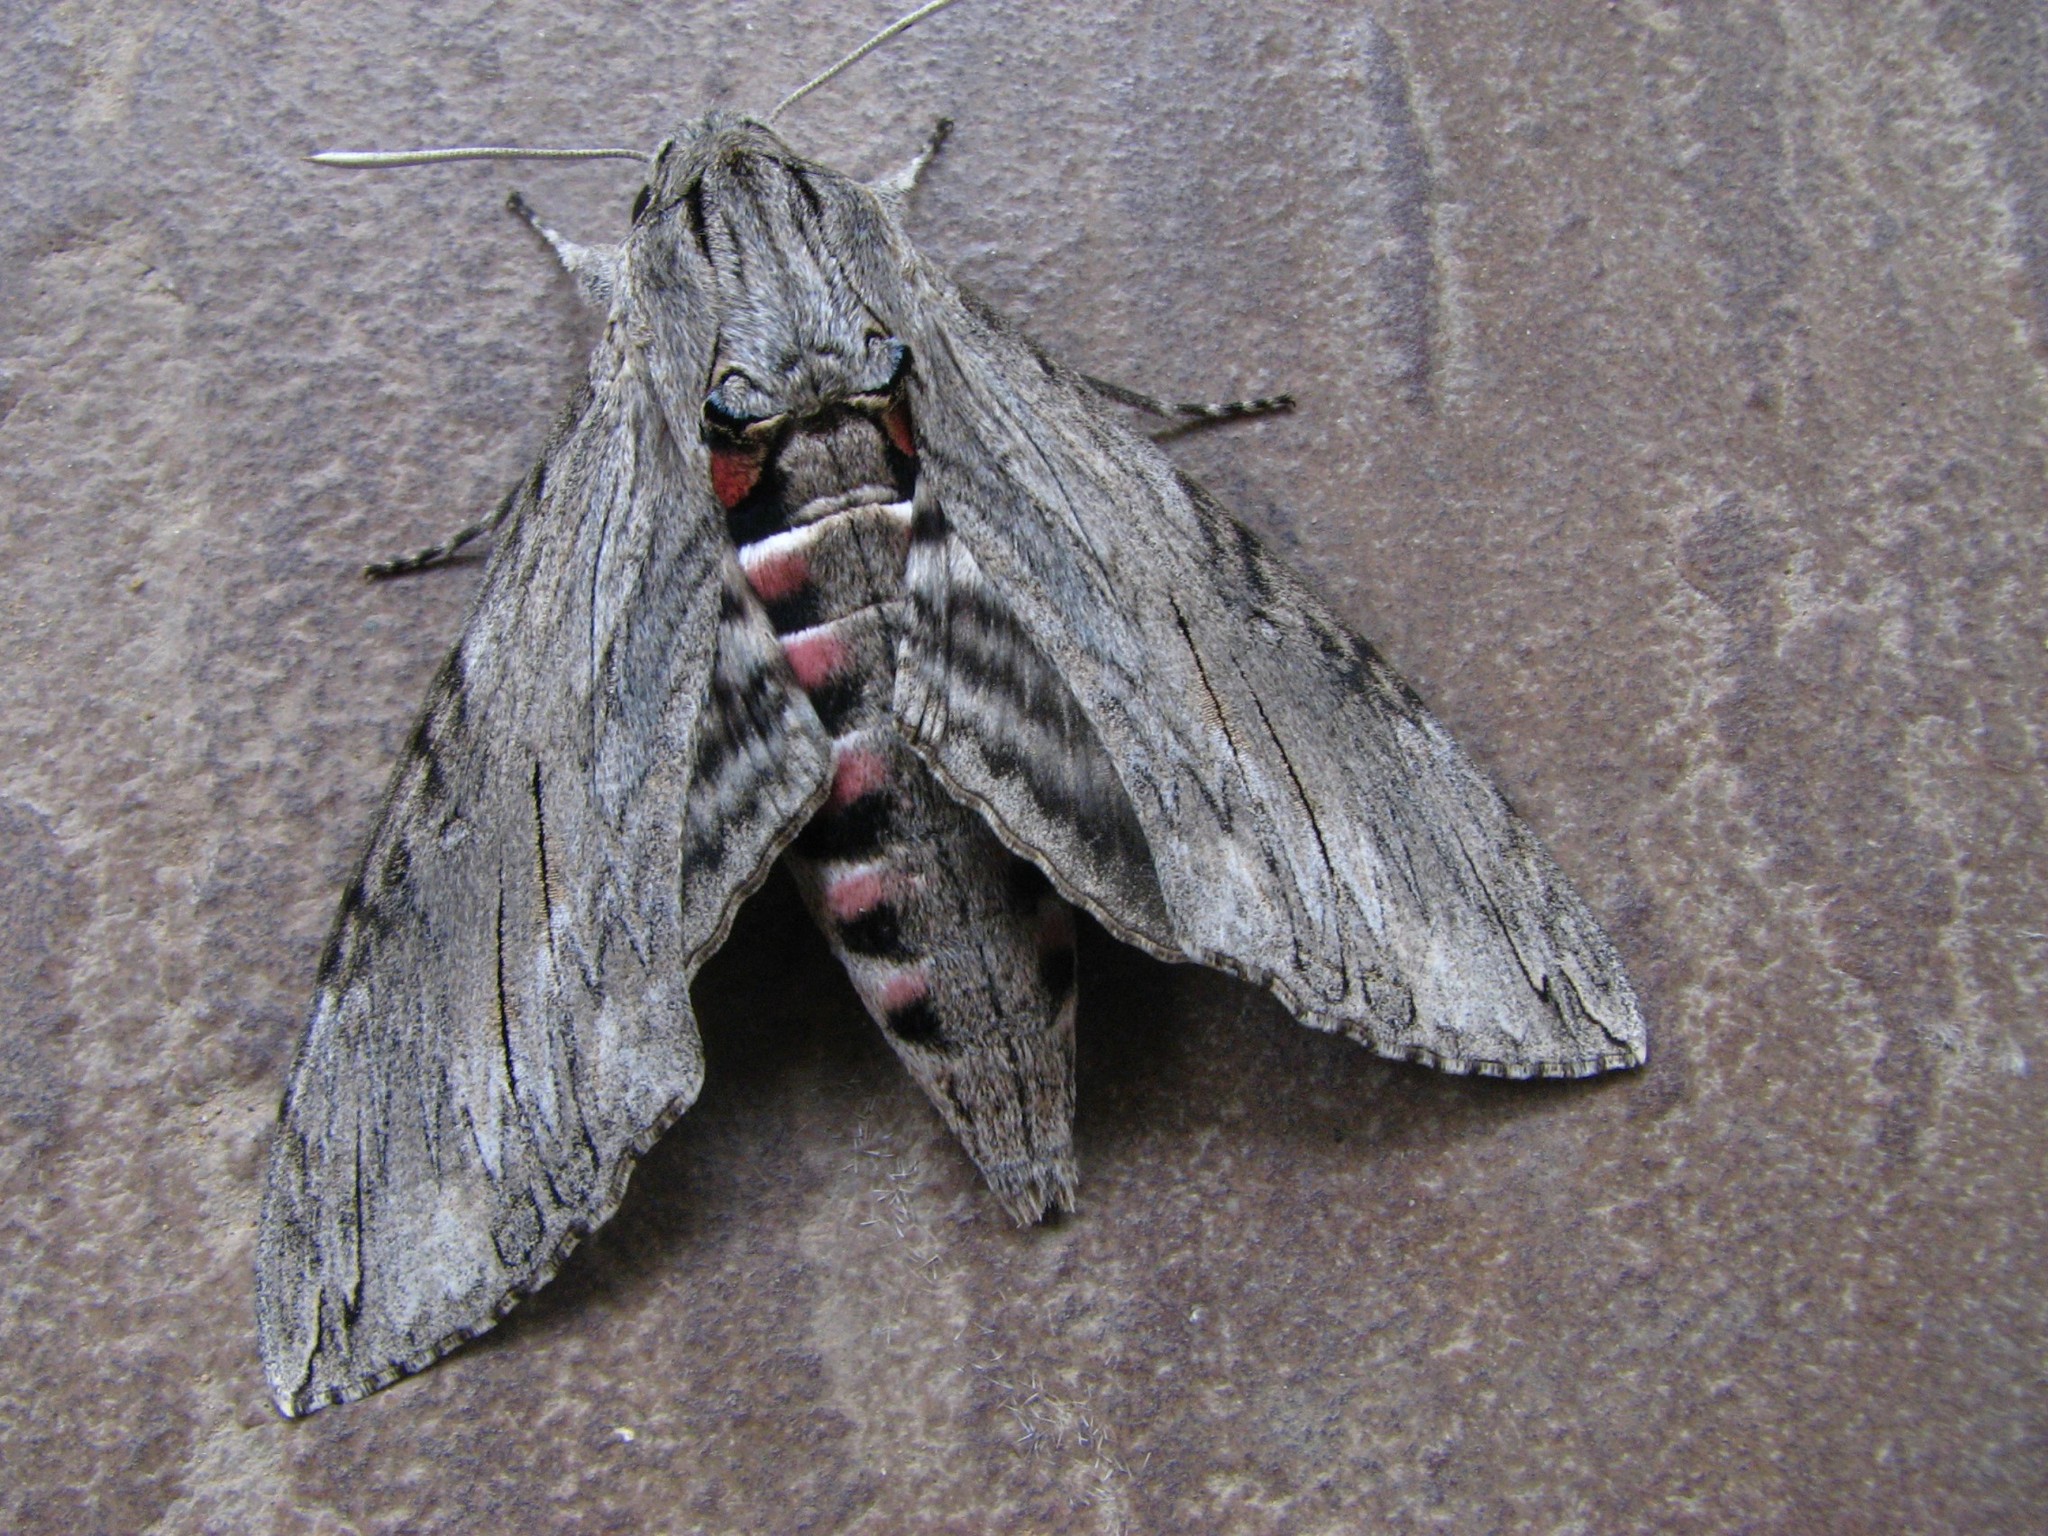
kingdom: Animalia
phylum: Arthropoda
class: Insecta
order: Lepidoptera
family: Sphingidae
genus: Agrius
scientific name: Agrius convolvuli
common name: Convolvulus hawkmoth
